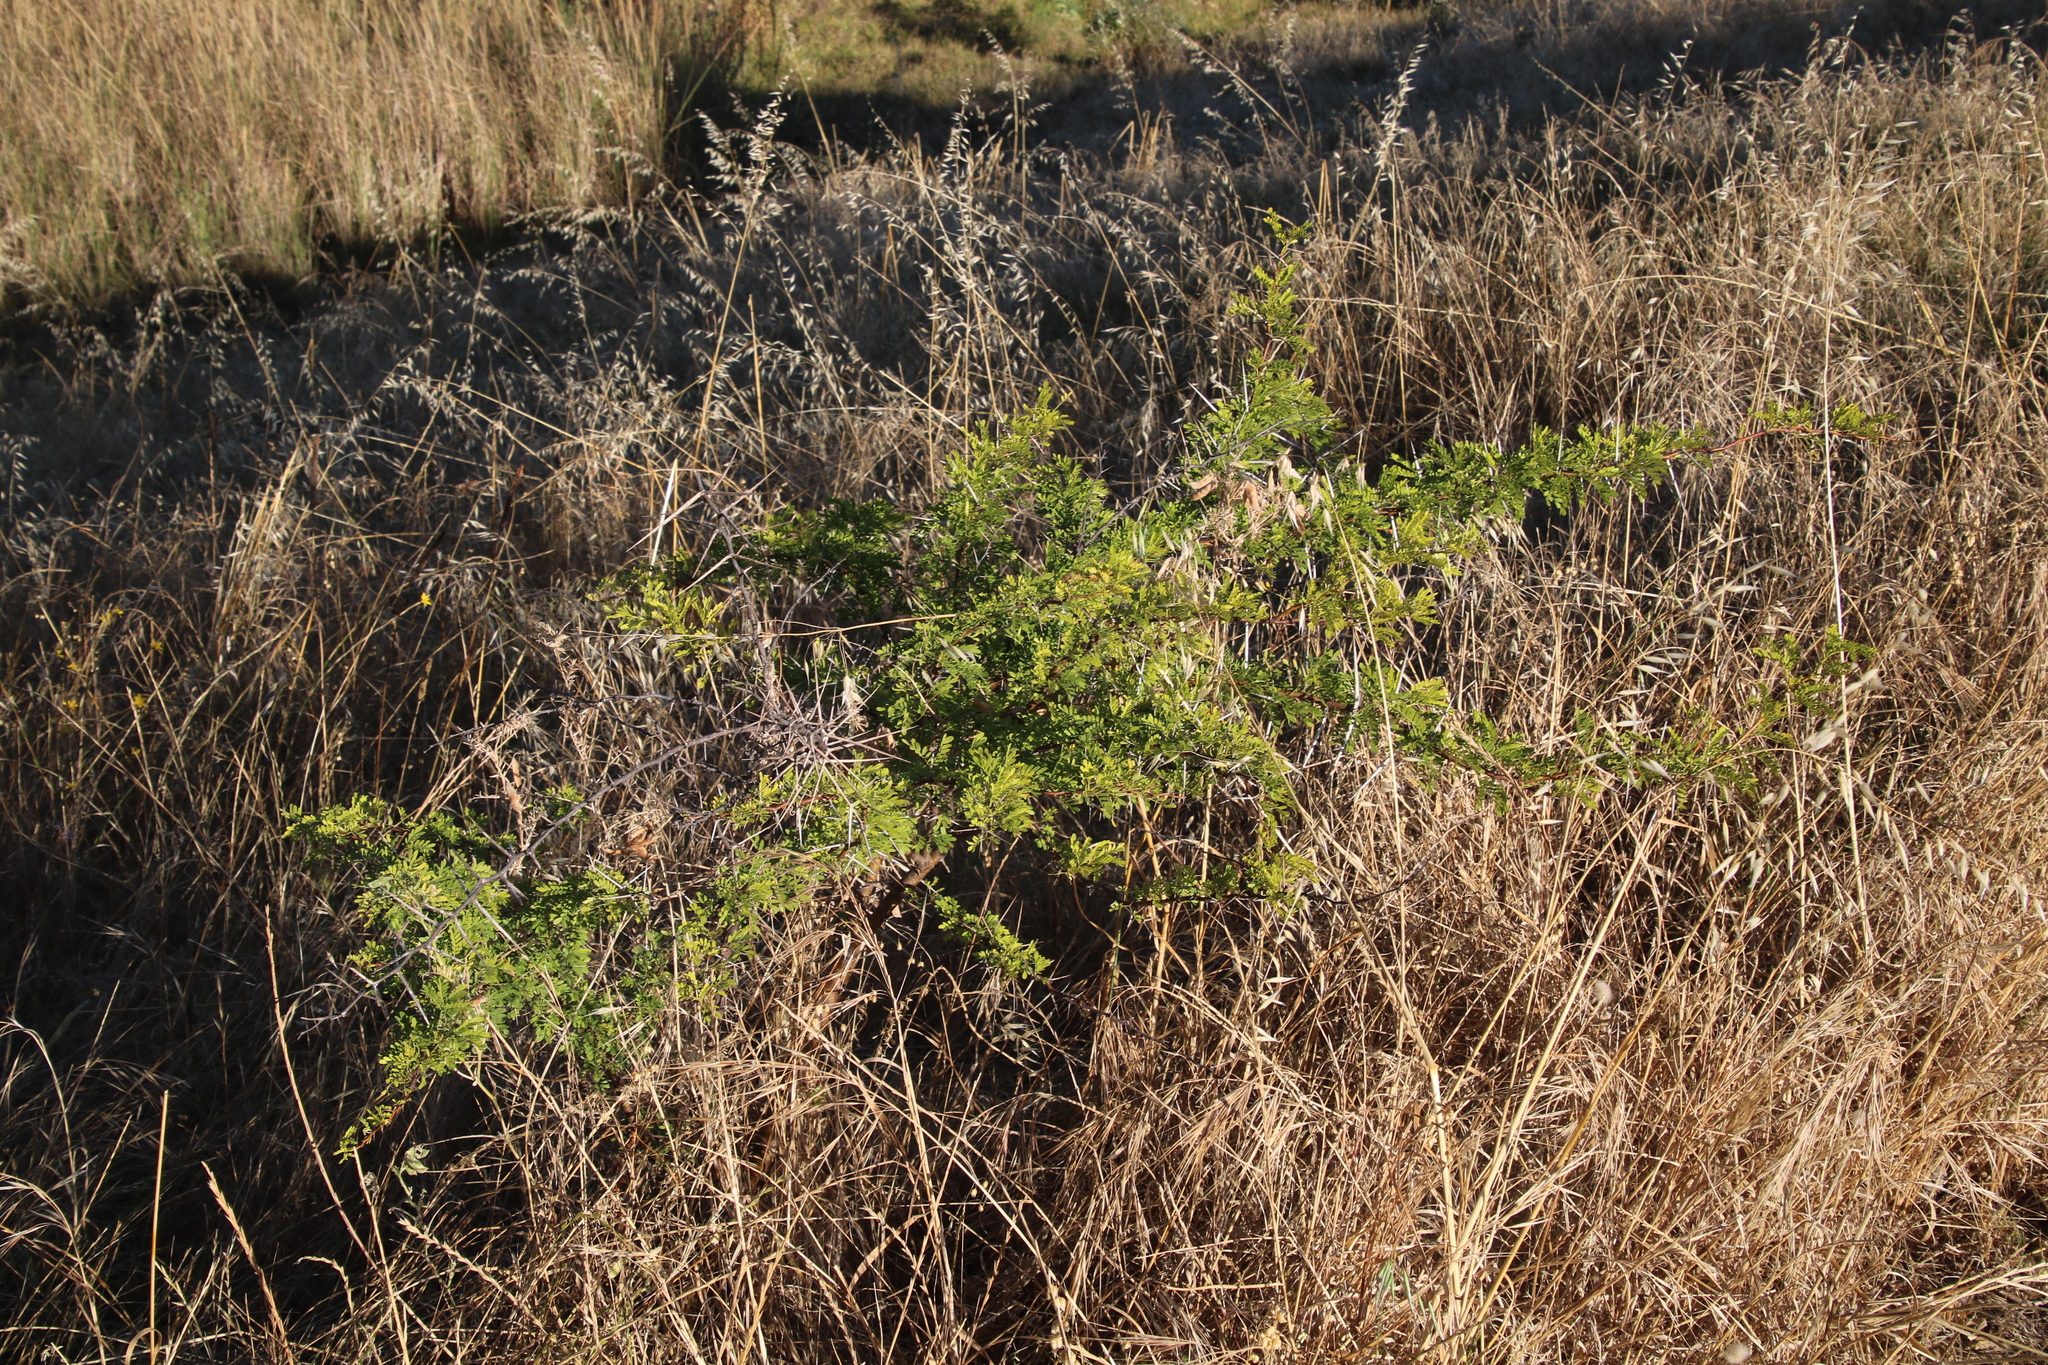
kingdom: Plantae
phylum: Tracheophyta
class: Magnoliopsida
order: Fabales
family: Fabaceae
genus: Vachellia
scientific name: Vachellia karroo
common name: Sweet thorn
